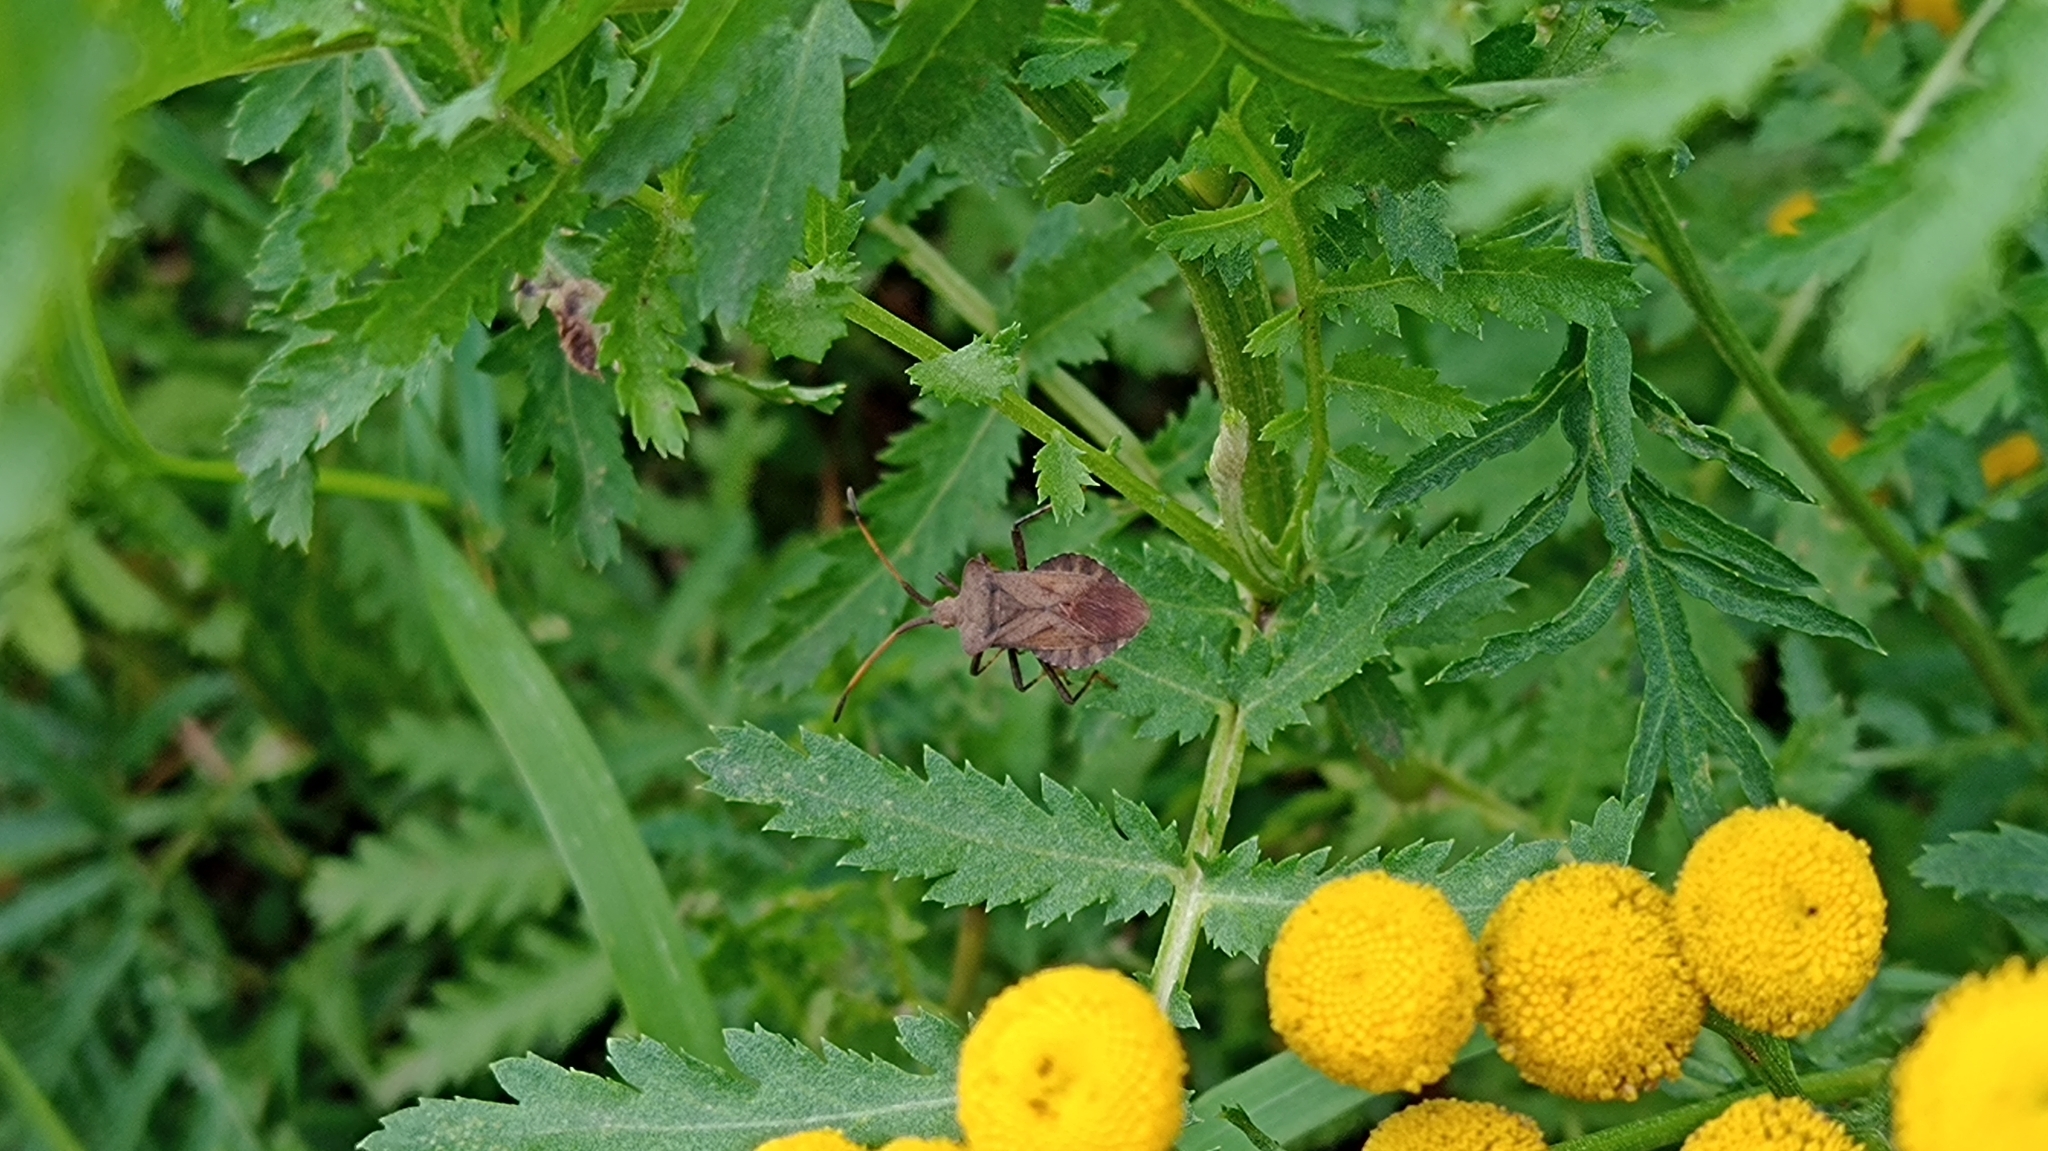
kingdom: Animalia
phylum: Arthropoda
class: Insecta
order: Hemiptera
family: Coreidae
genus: Coreus
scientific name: Coreus marginatus
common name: Dock bug
